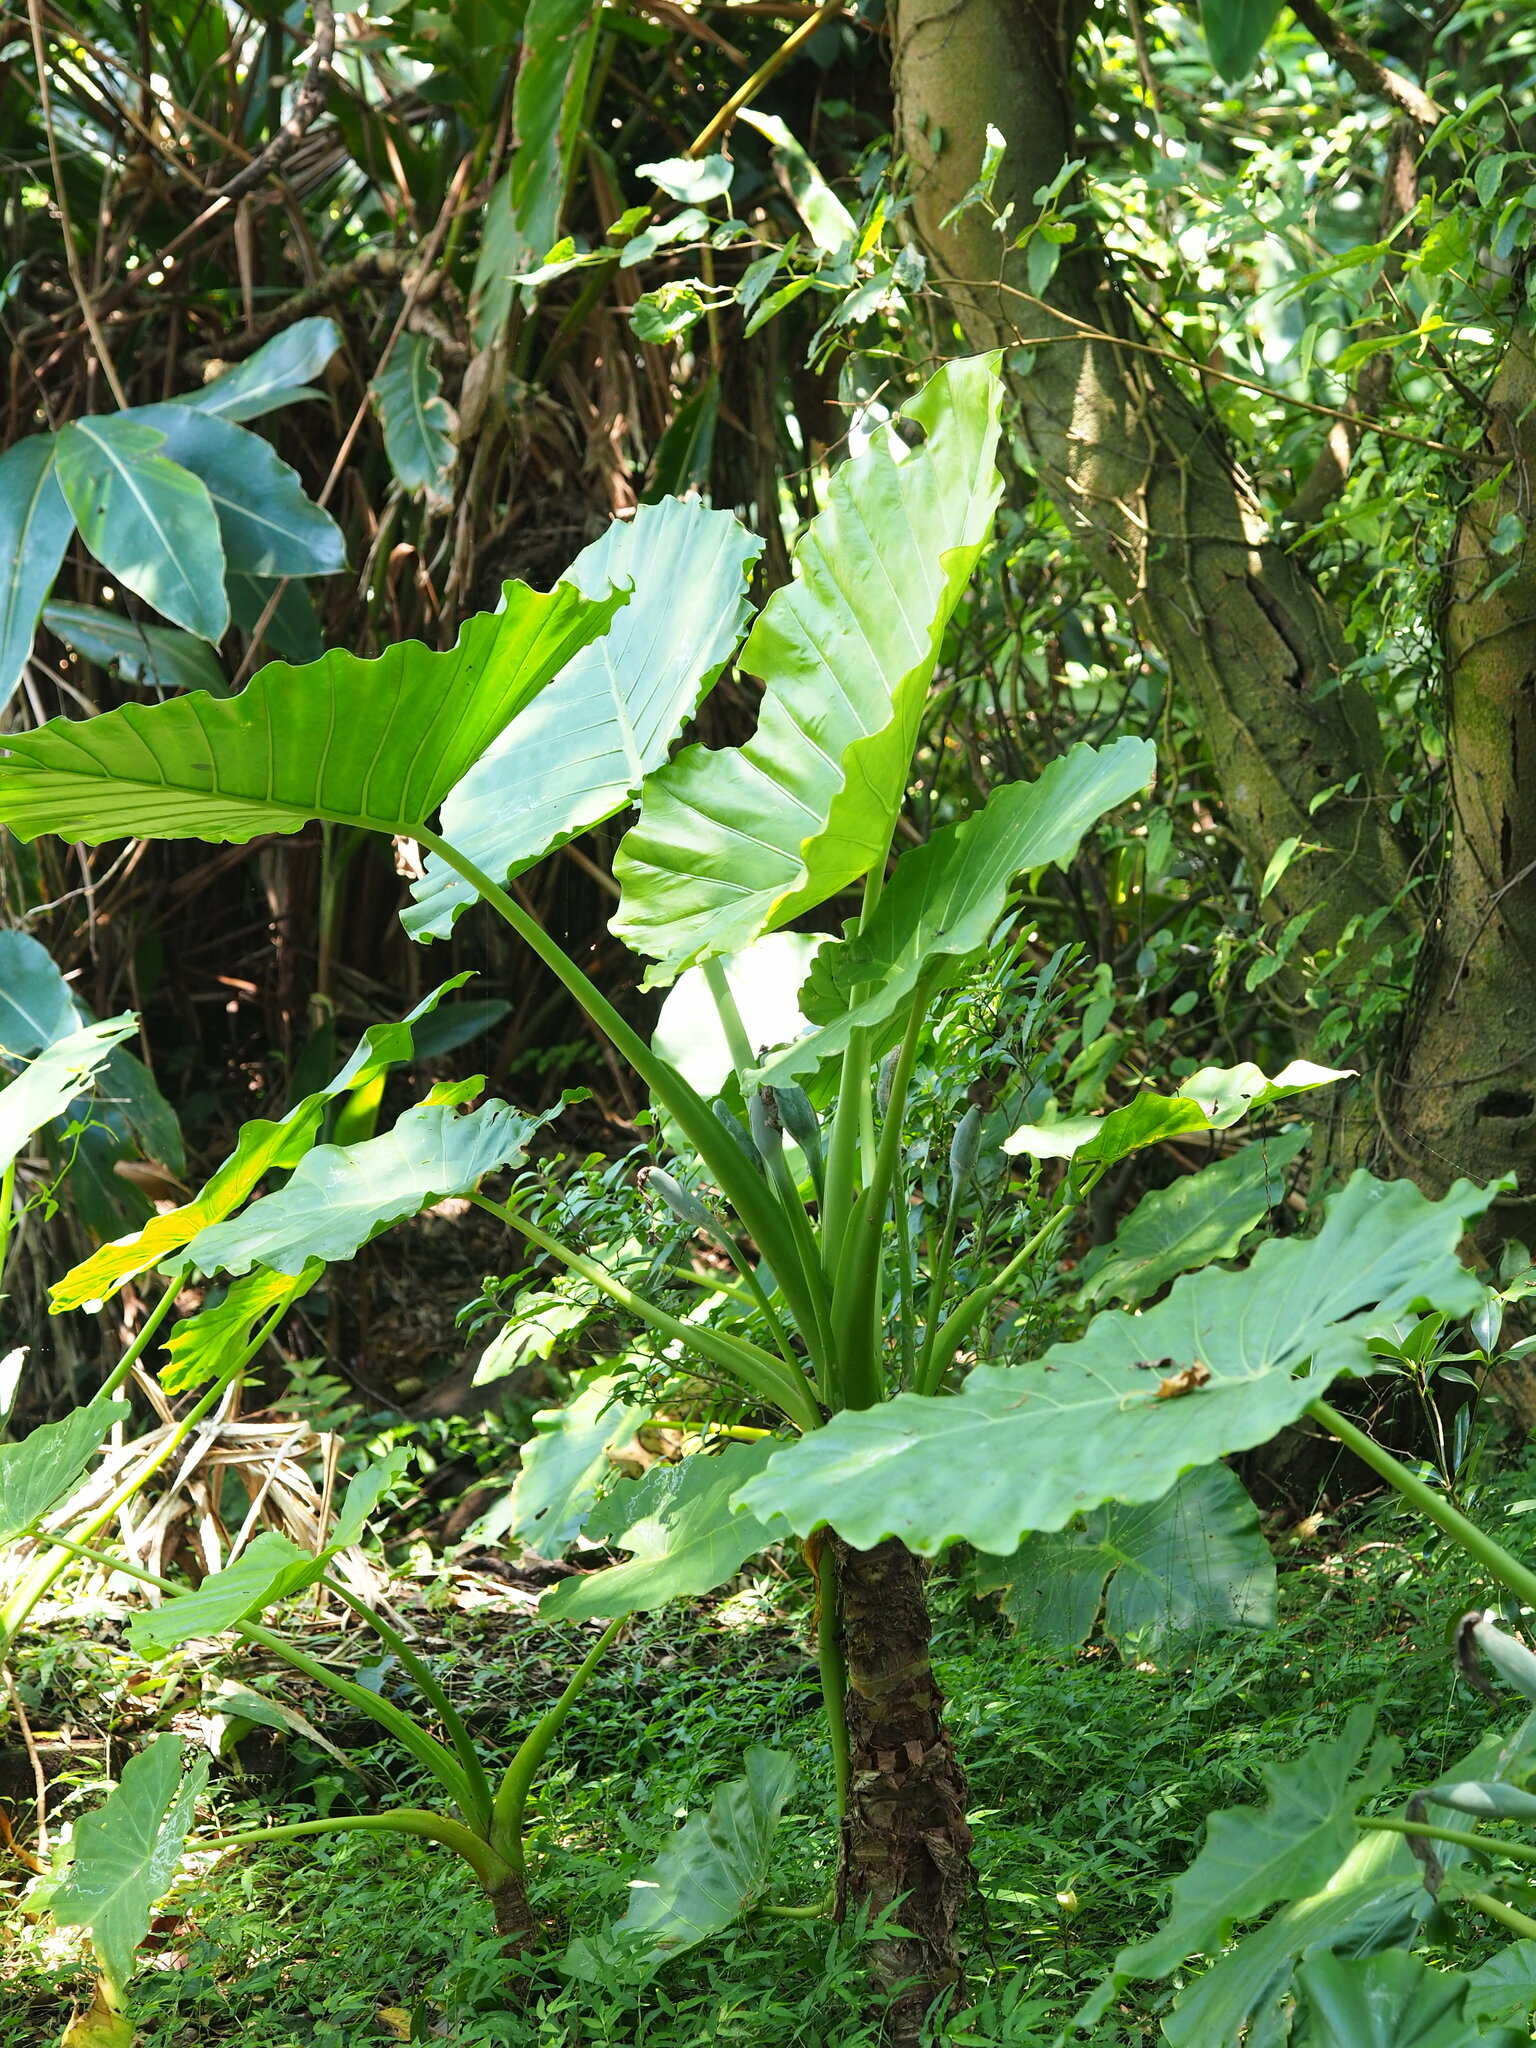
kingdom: Plantae
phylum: Tracheophyta
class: Liliopsida
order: Alismatales
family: Araceae
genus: Alocasia
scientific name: Alocasia odora
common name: Asian taro
